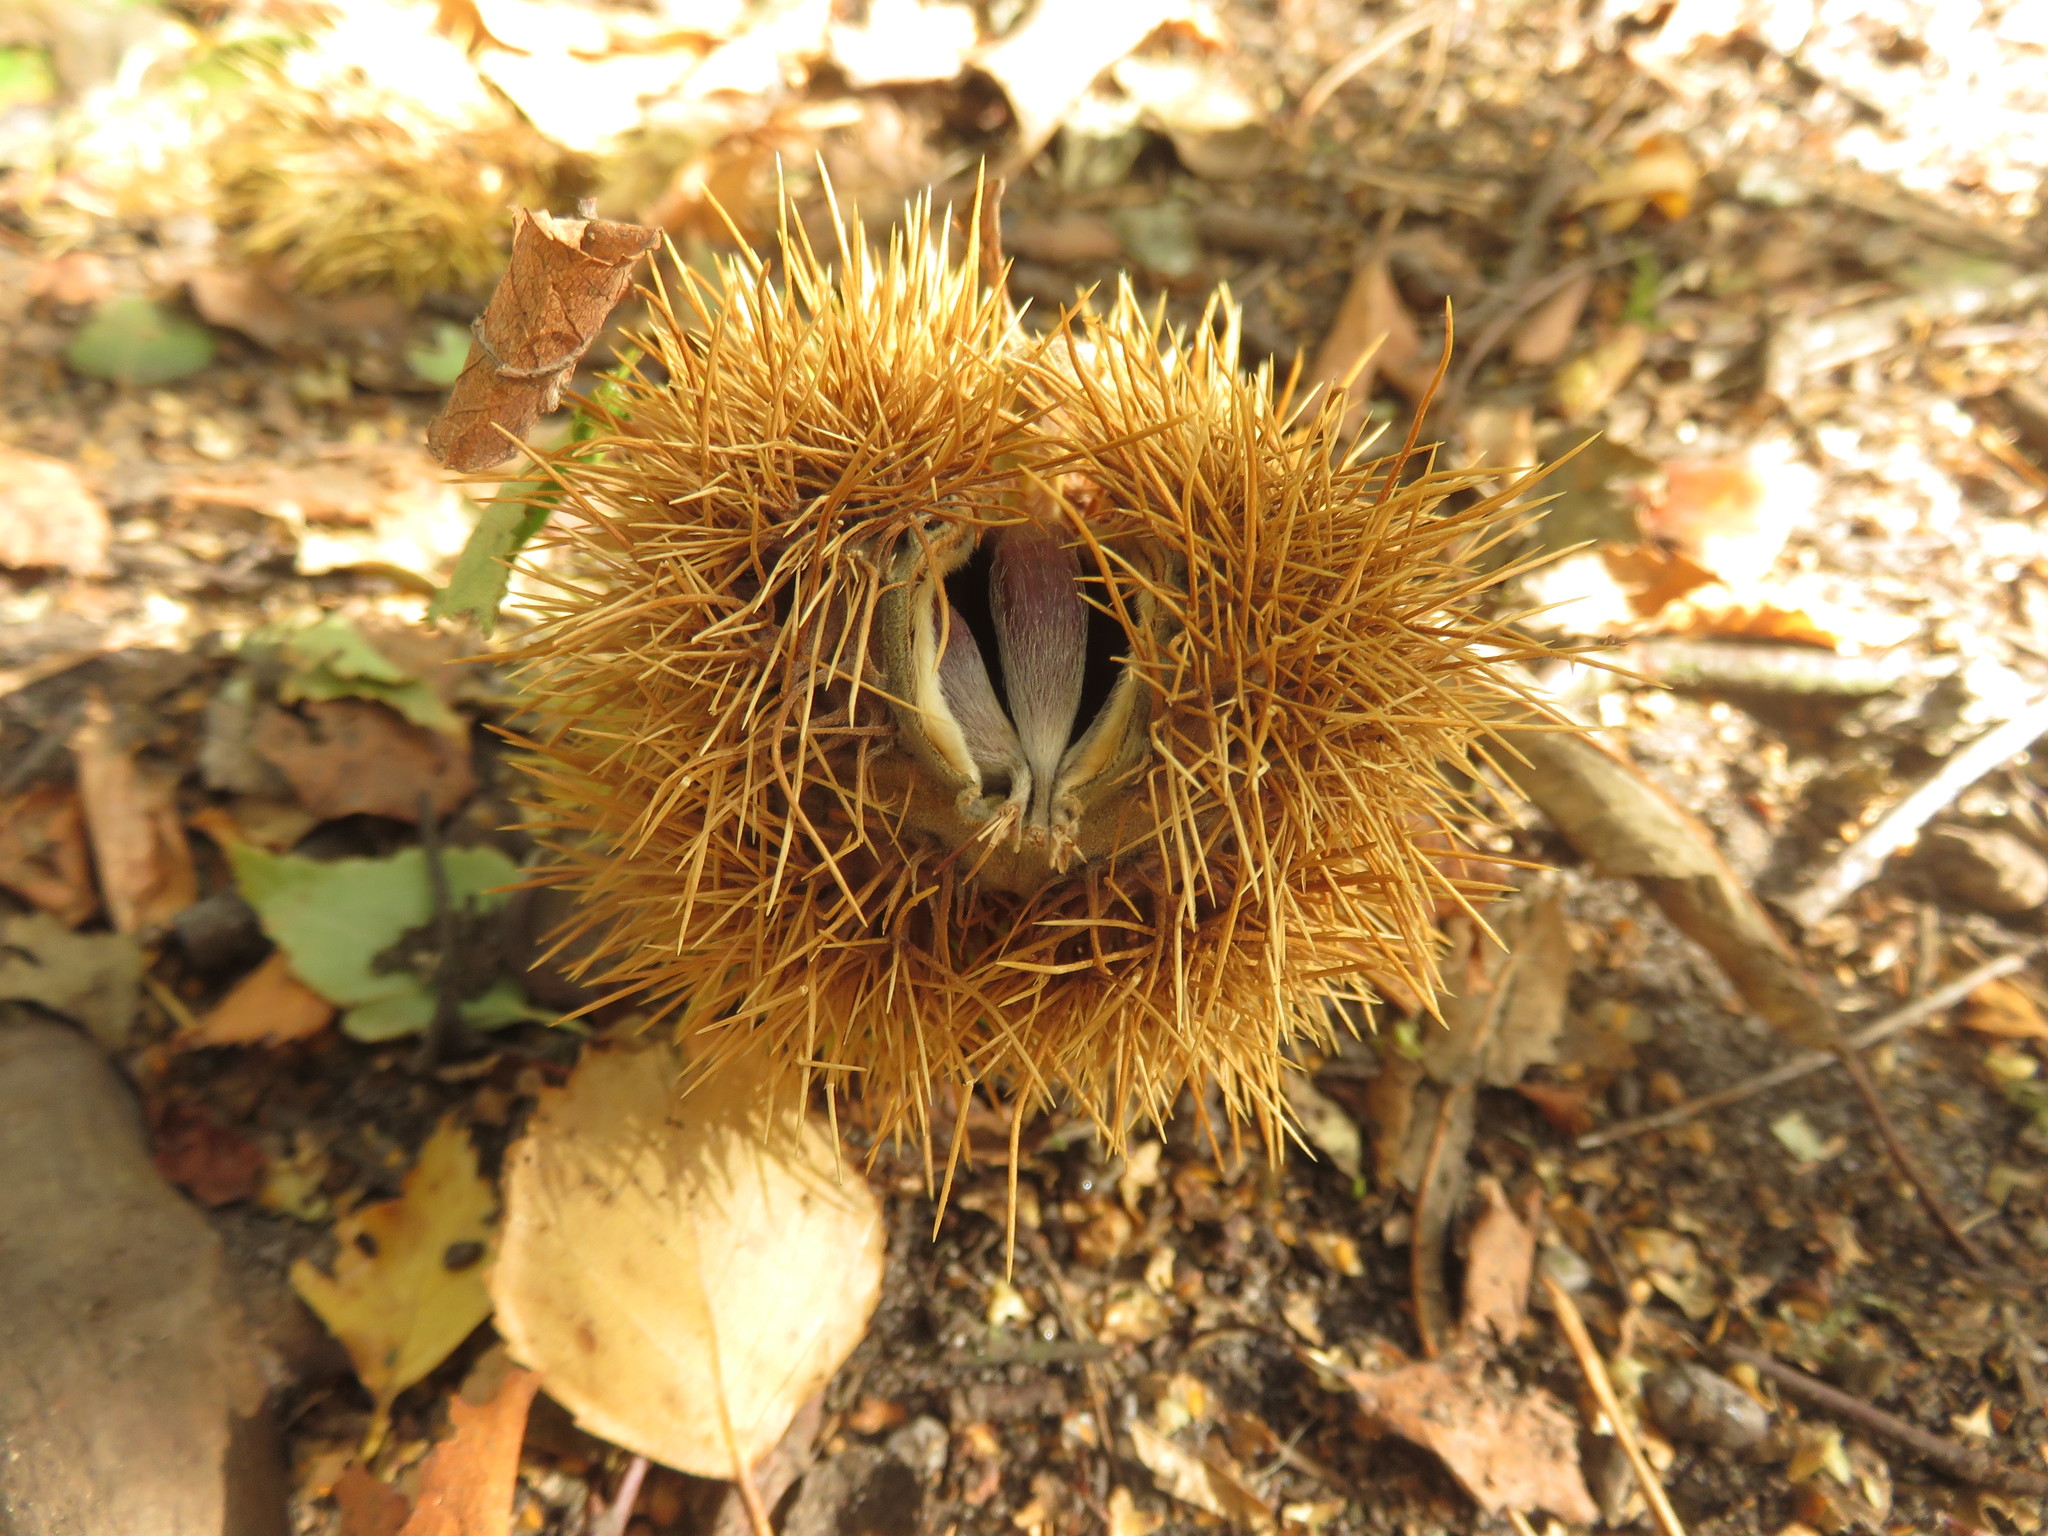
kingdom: Plantae
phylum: Tracheophyta
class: Magnoliopsida
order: Fagales
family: Fagaceae
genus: Castanea
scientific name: Castanea sativa
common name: Sweet chestnut
